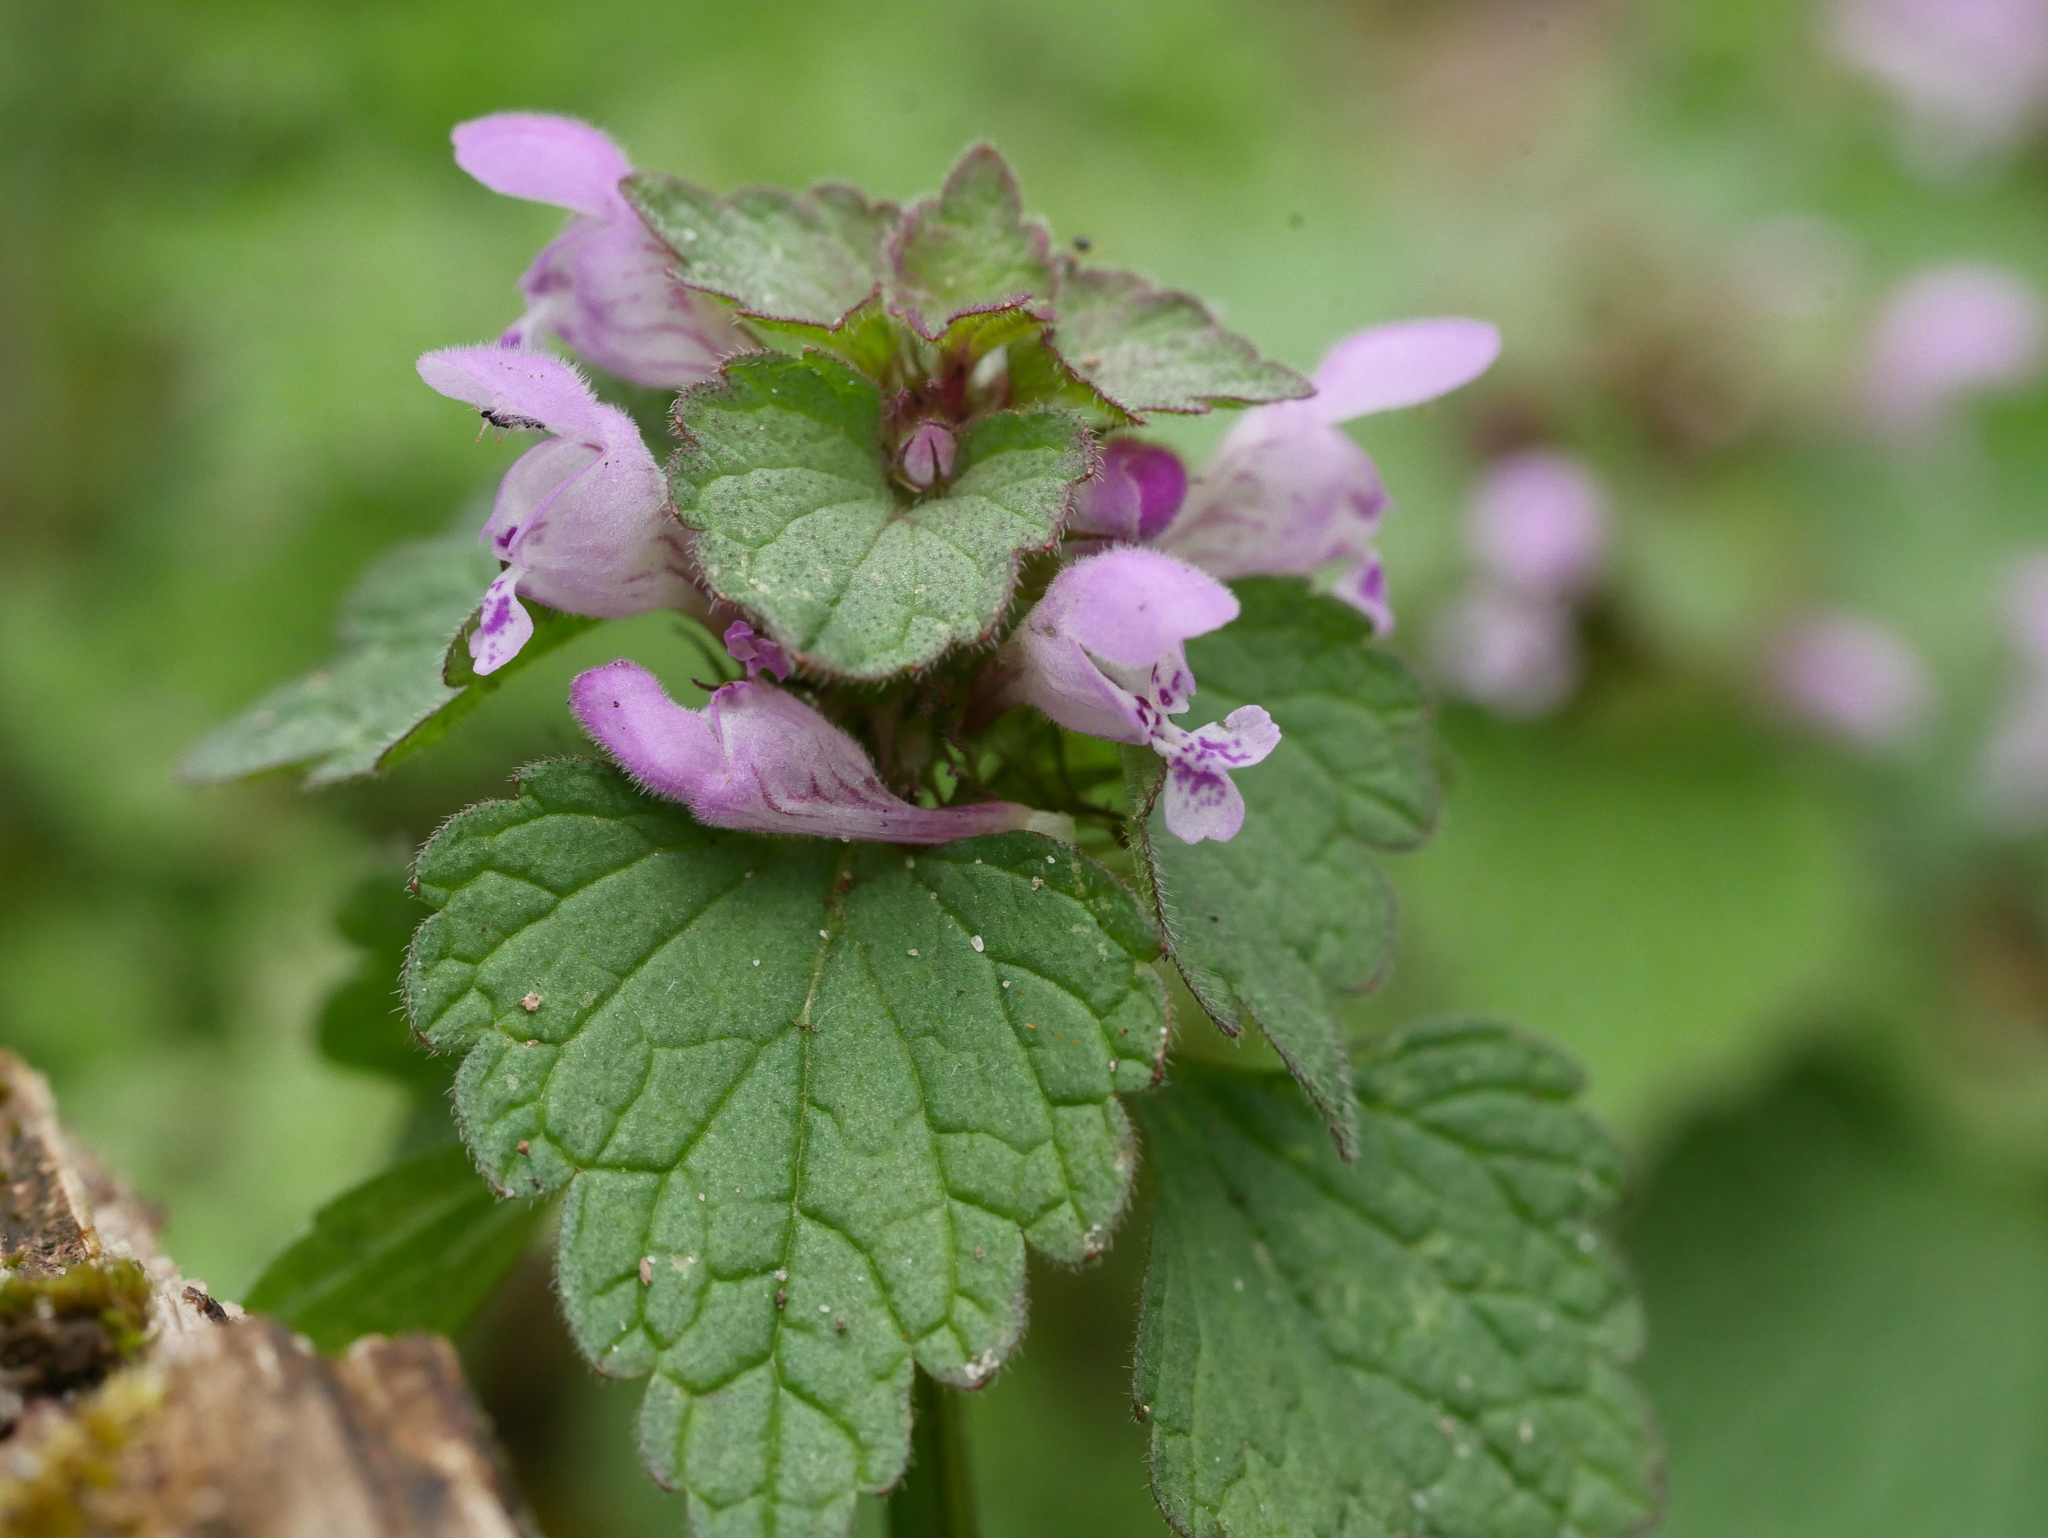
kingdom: Plantae
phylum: Tracheophyta
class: Magnoliopsida
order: Lamiales
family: Lamiaceae
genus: Lamium
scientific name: Lamium purpureum
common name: Red dead-nettle
